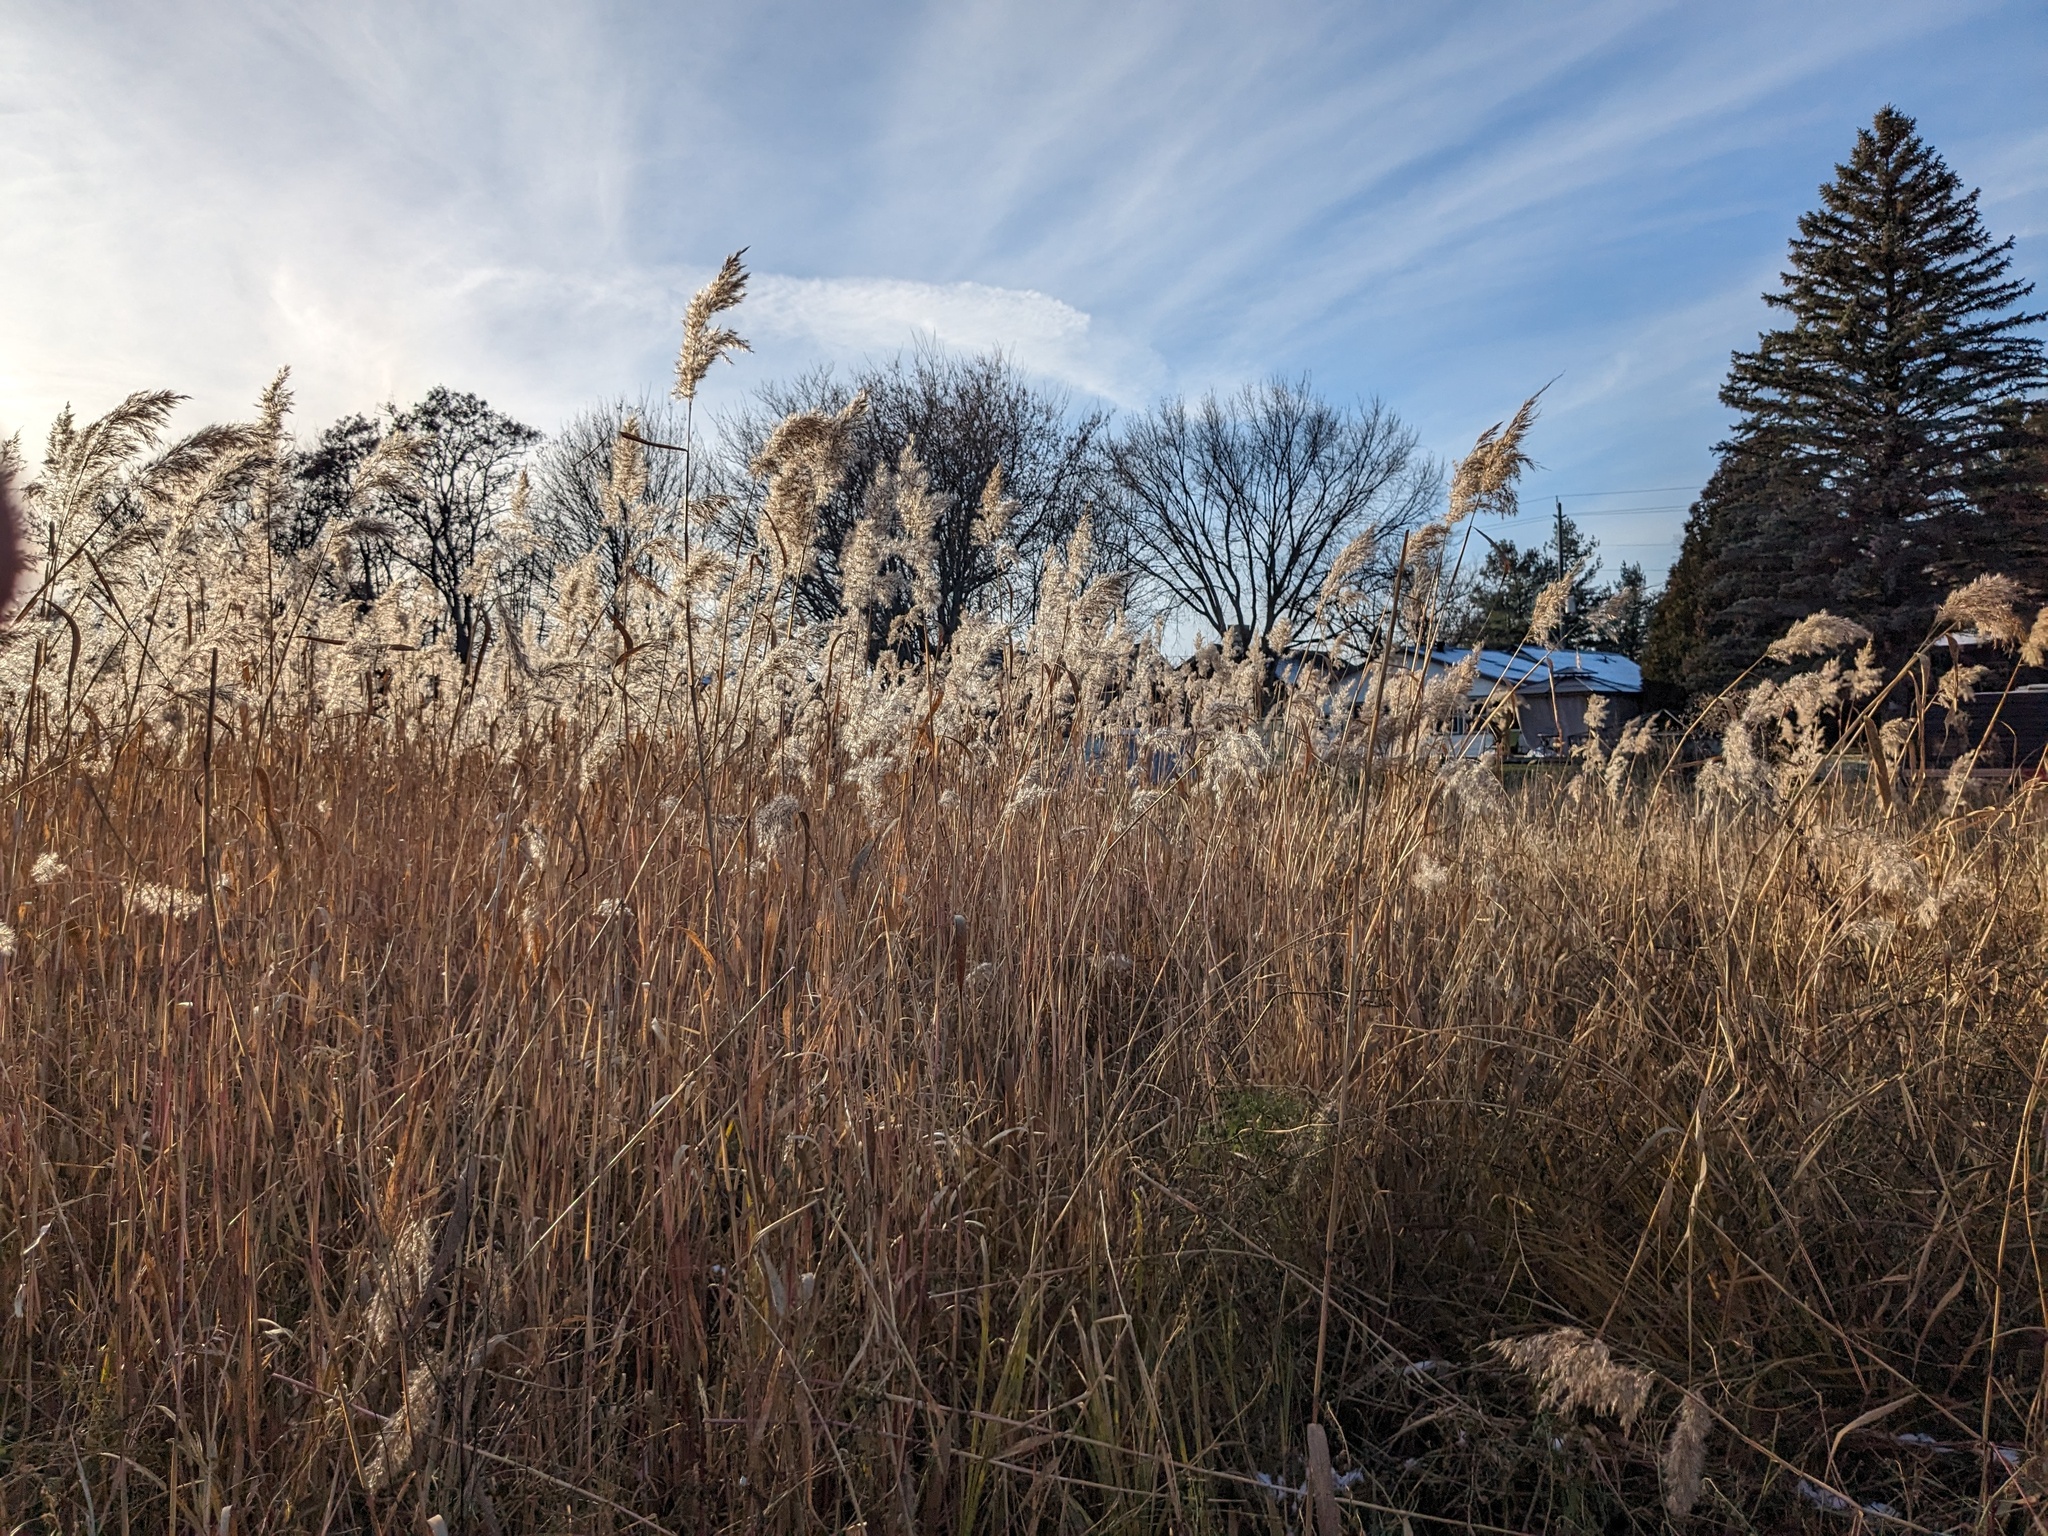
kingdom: Plantae
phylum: Tracheophyta
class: Liliopsida
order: Poales
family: Poaceae
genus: Phragmites
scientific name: Phragmites australis
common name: Common reed
